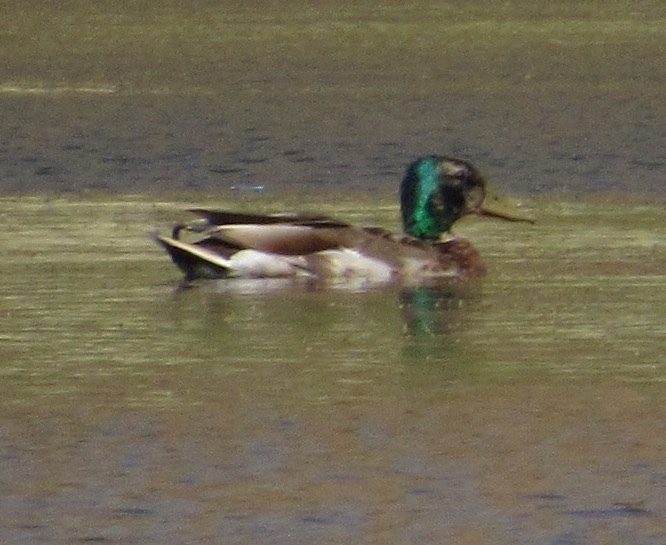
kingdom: Animalia
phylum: Chordata
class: Aves
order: Anseriformes
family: Anatidae
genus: Anas
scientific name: Anas platyrhynchos
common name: Mallard
